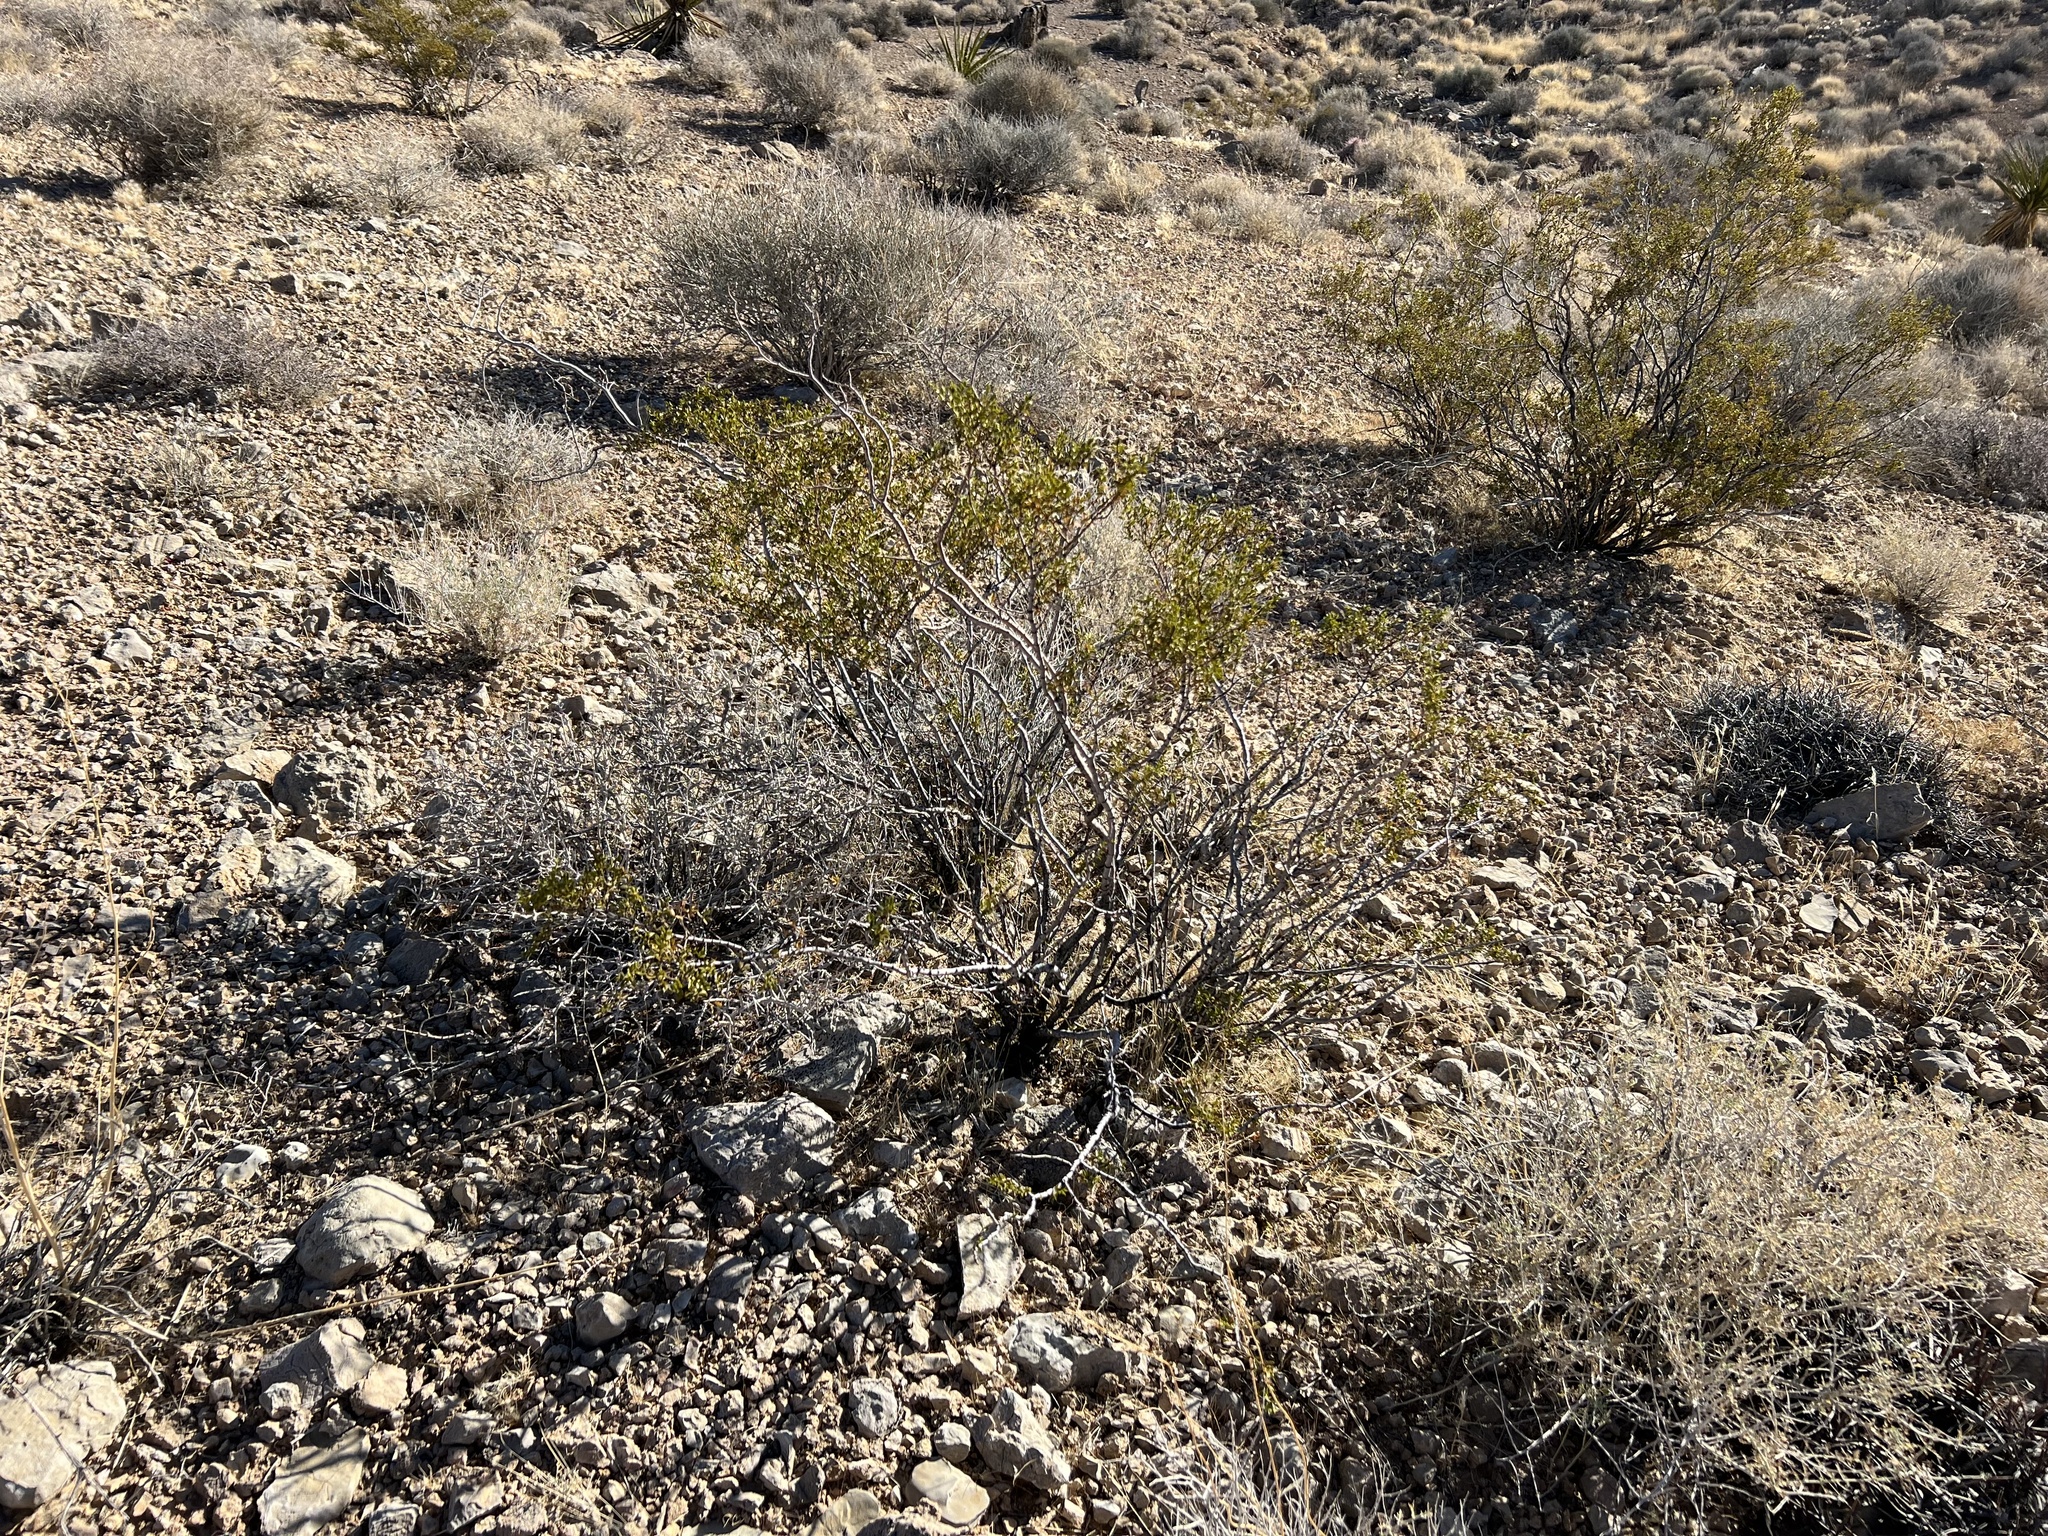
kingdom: Plantae
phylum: Tracheophyta
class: Magnoliopsida
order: Zygophyllales
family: Zygophyllaceae
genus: Larrea
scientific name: Larrea tridentata
